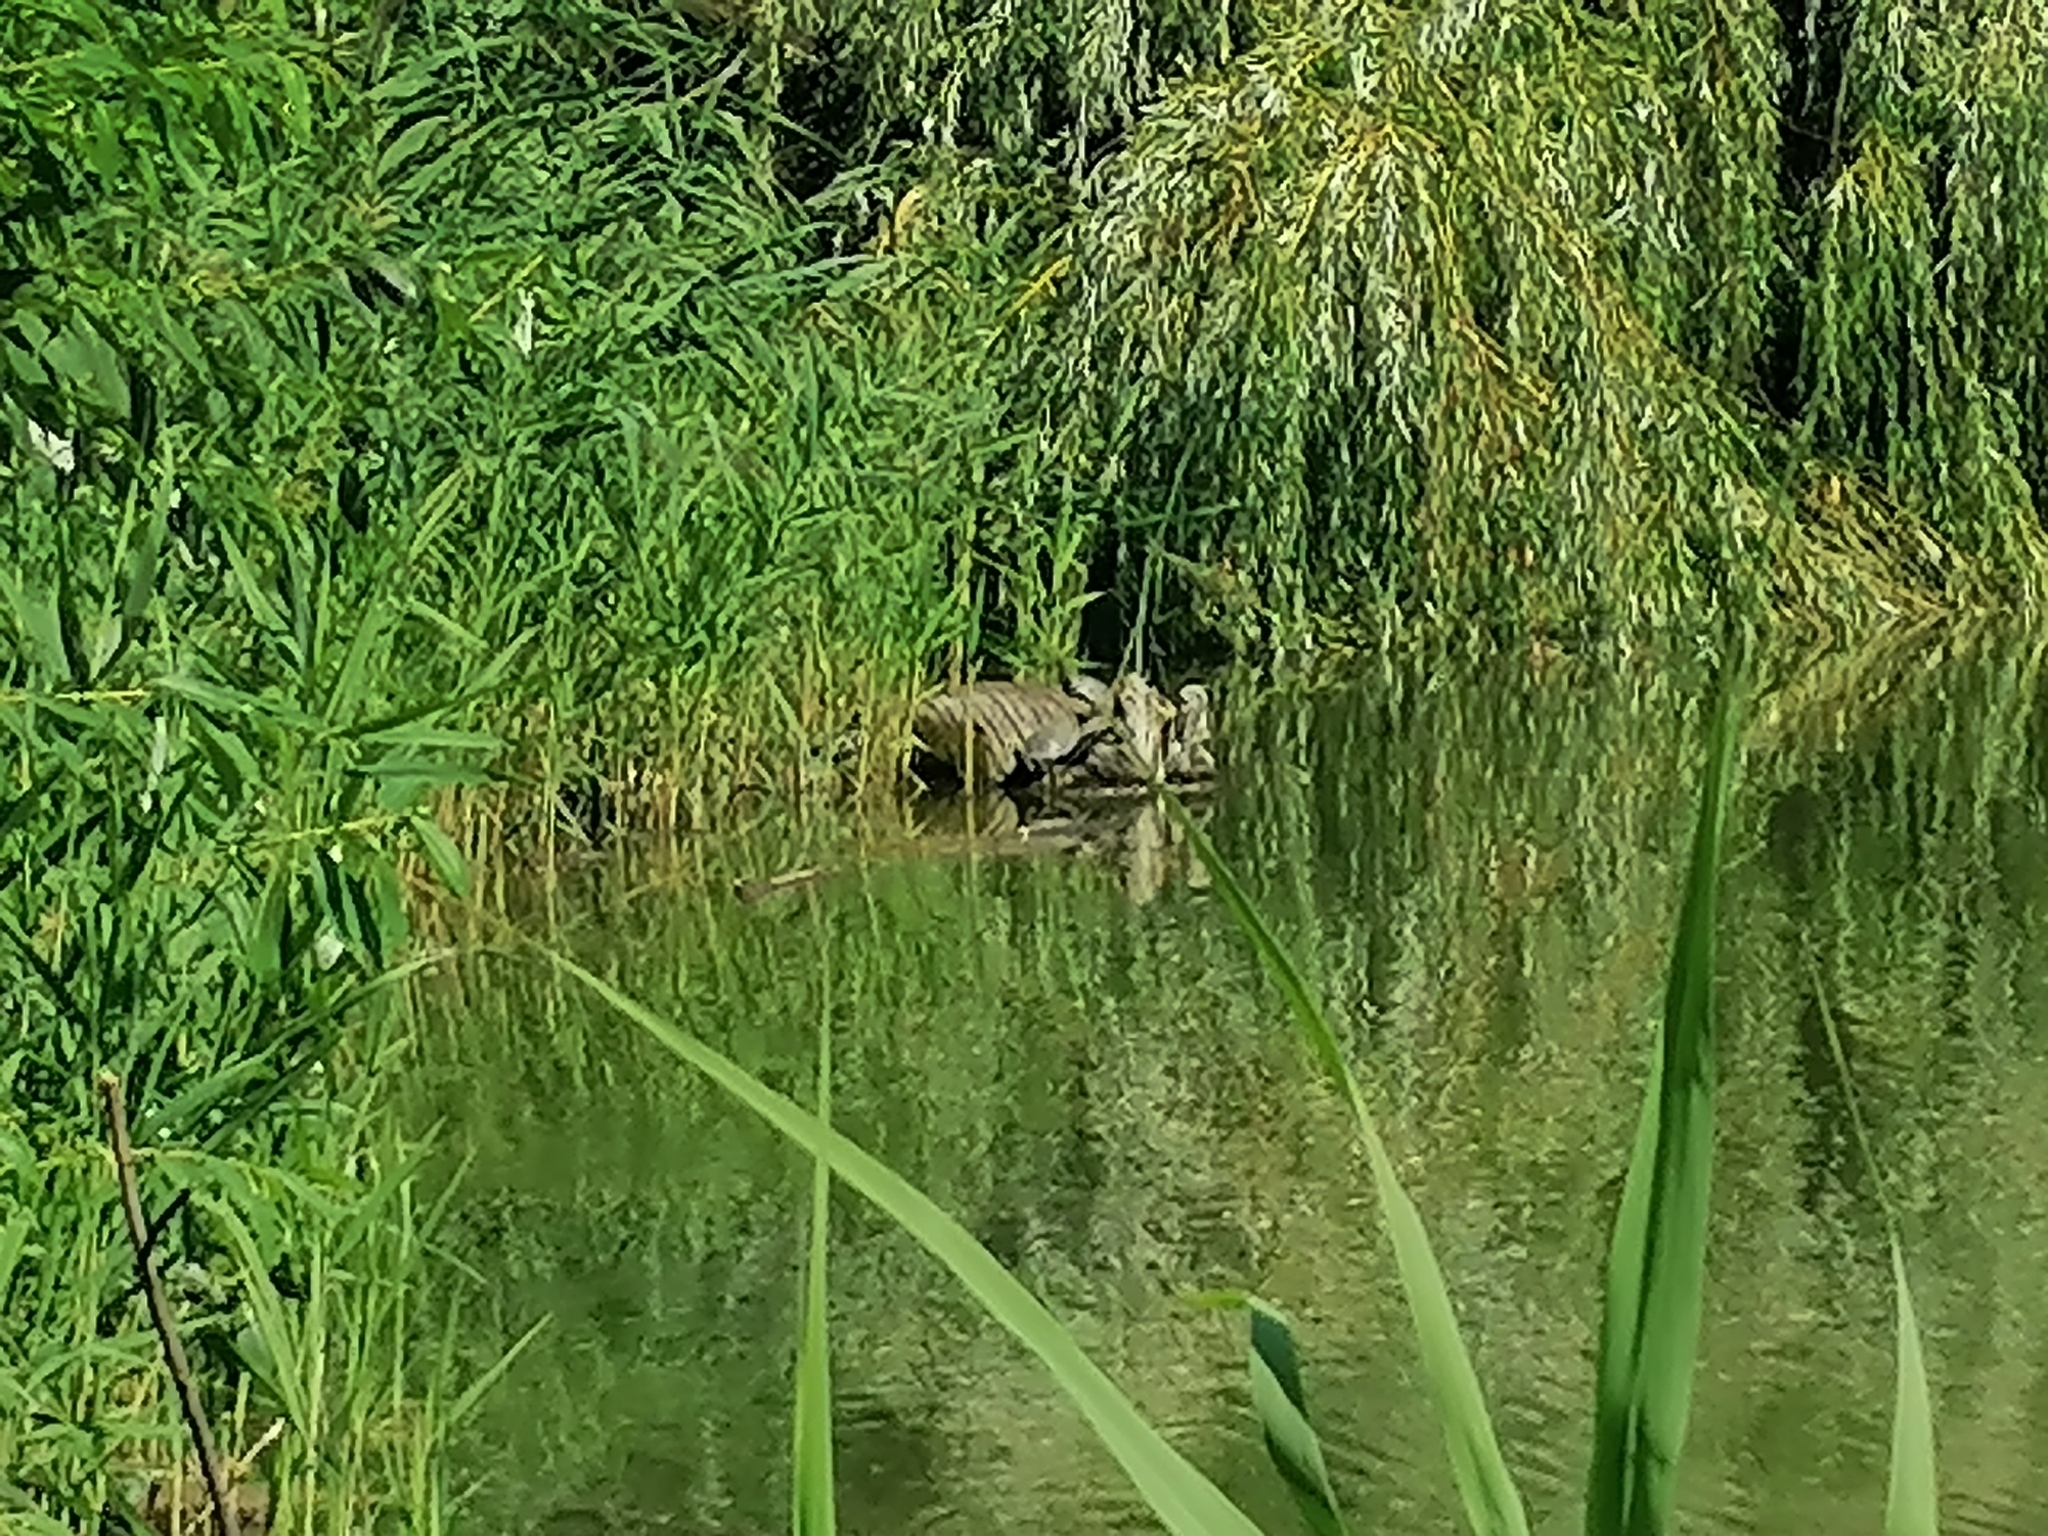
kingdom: Animalia
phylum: Chordata
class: Testudines
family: Emydidae
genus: Emys
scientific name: Emys orbicularis
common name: European pond turtle
